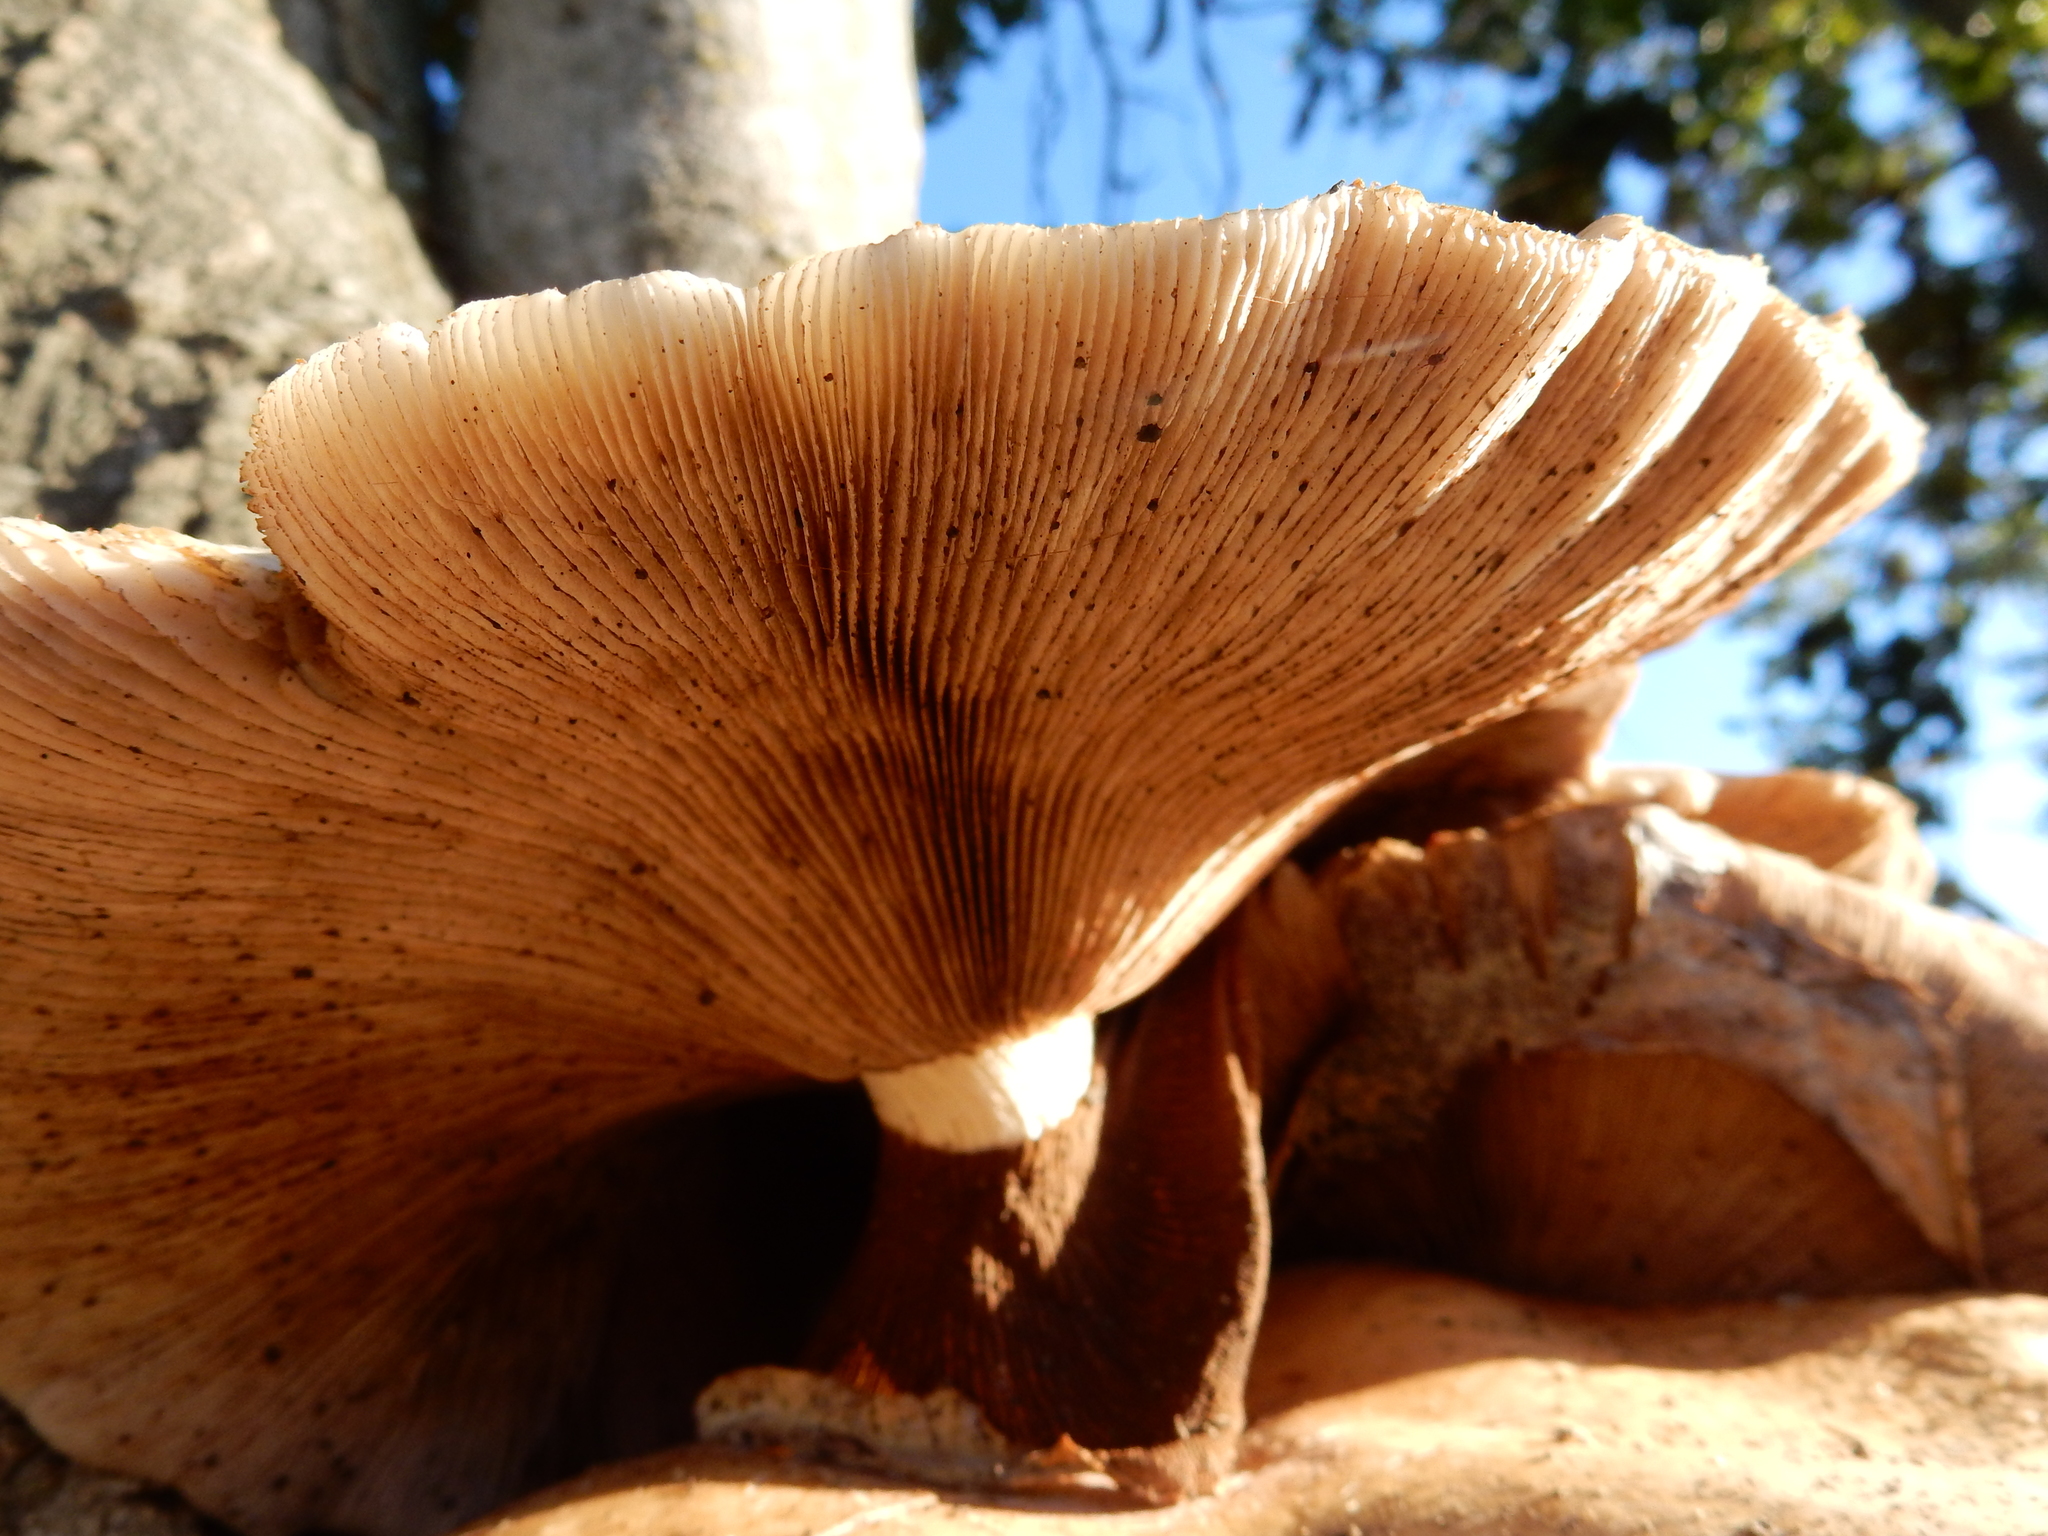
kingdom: Fungi
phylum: Basidiomycota
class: Agaricomycetes
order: Agaricales
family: Tubariaceae
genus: Cyclocybe
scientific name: Cyclocybe parasitica
